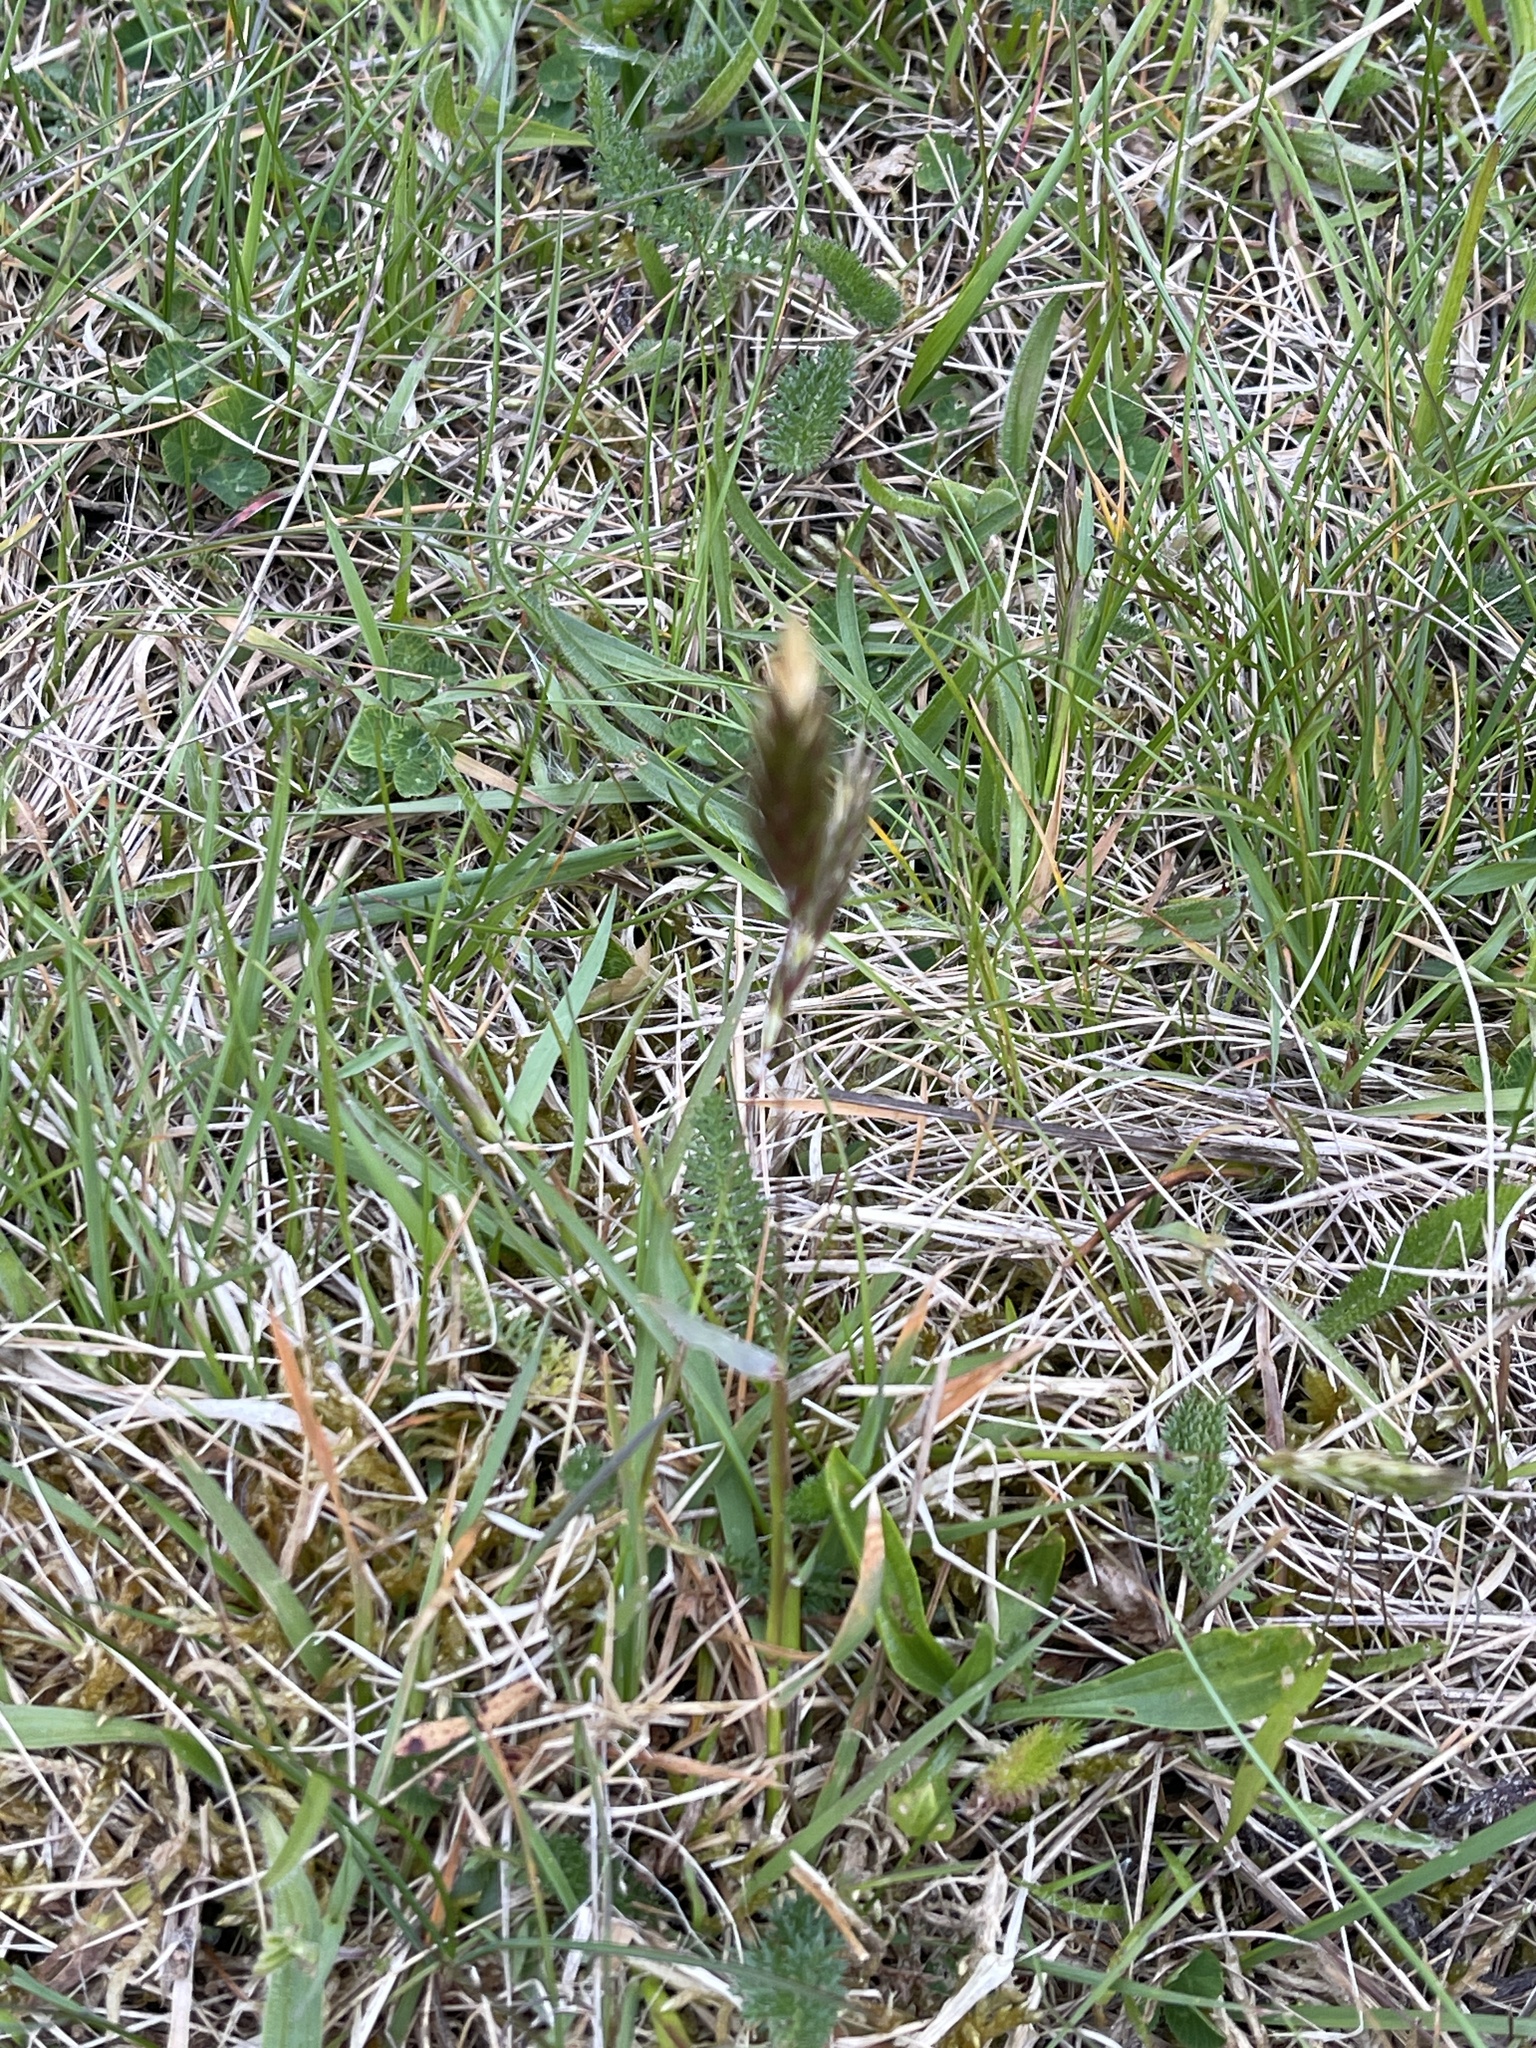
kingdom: Plantae
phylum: Tracheophyta
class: Liliopsida
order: Poales
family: Poaceae
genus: Anthoxanthum
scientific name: Anthoxanthum odoratum
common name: Sweet vernalgrass
